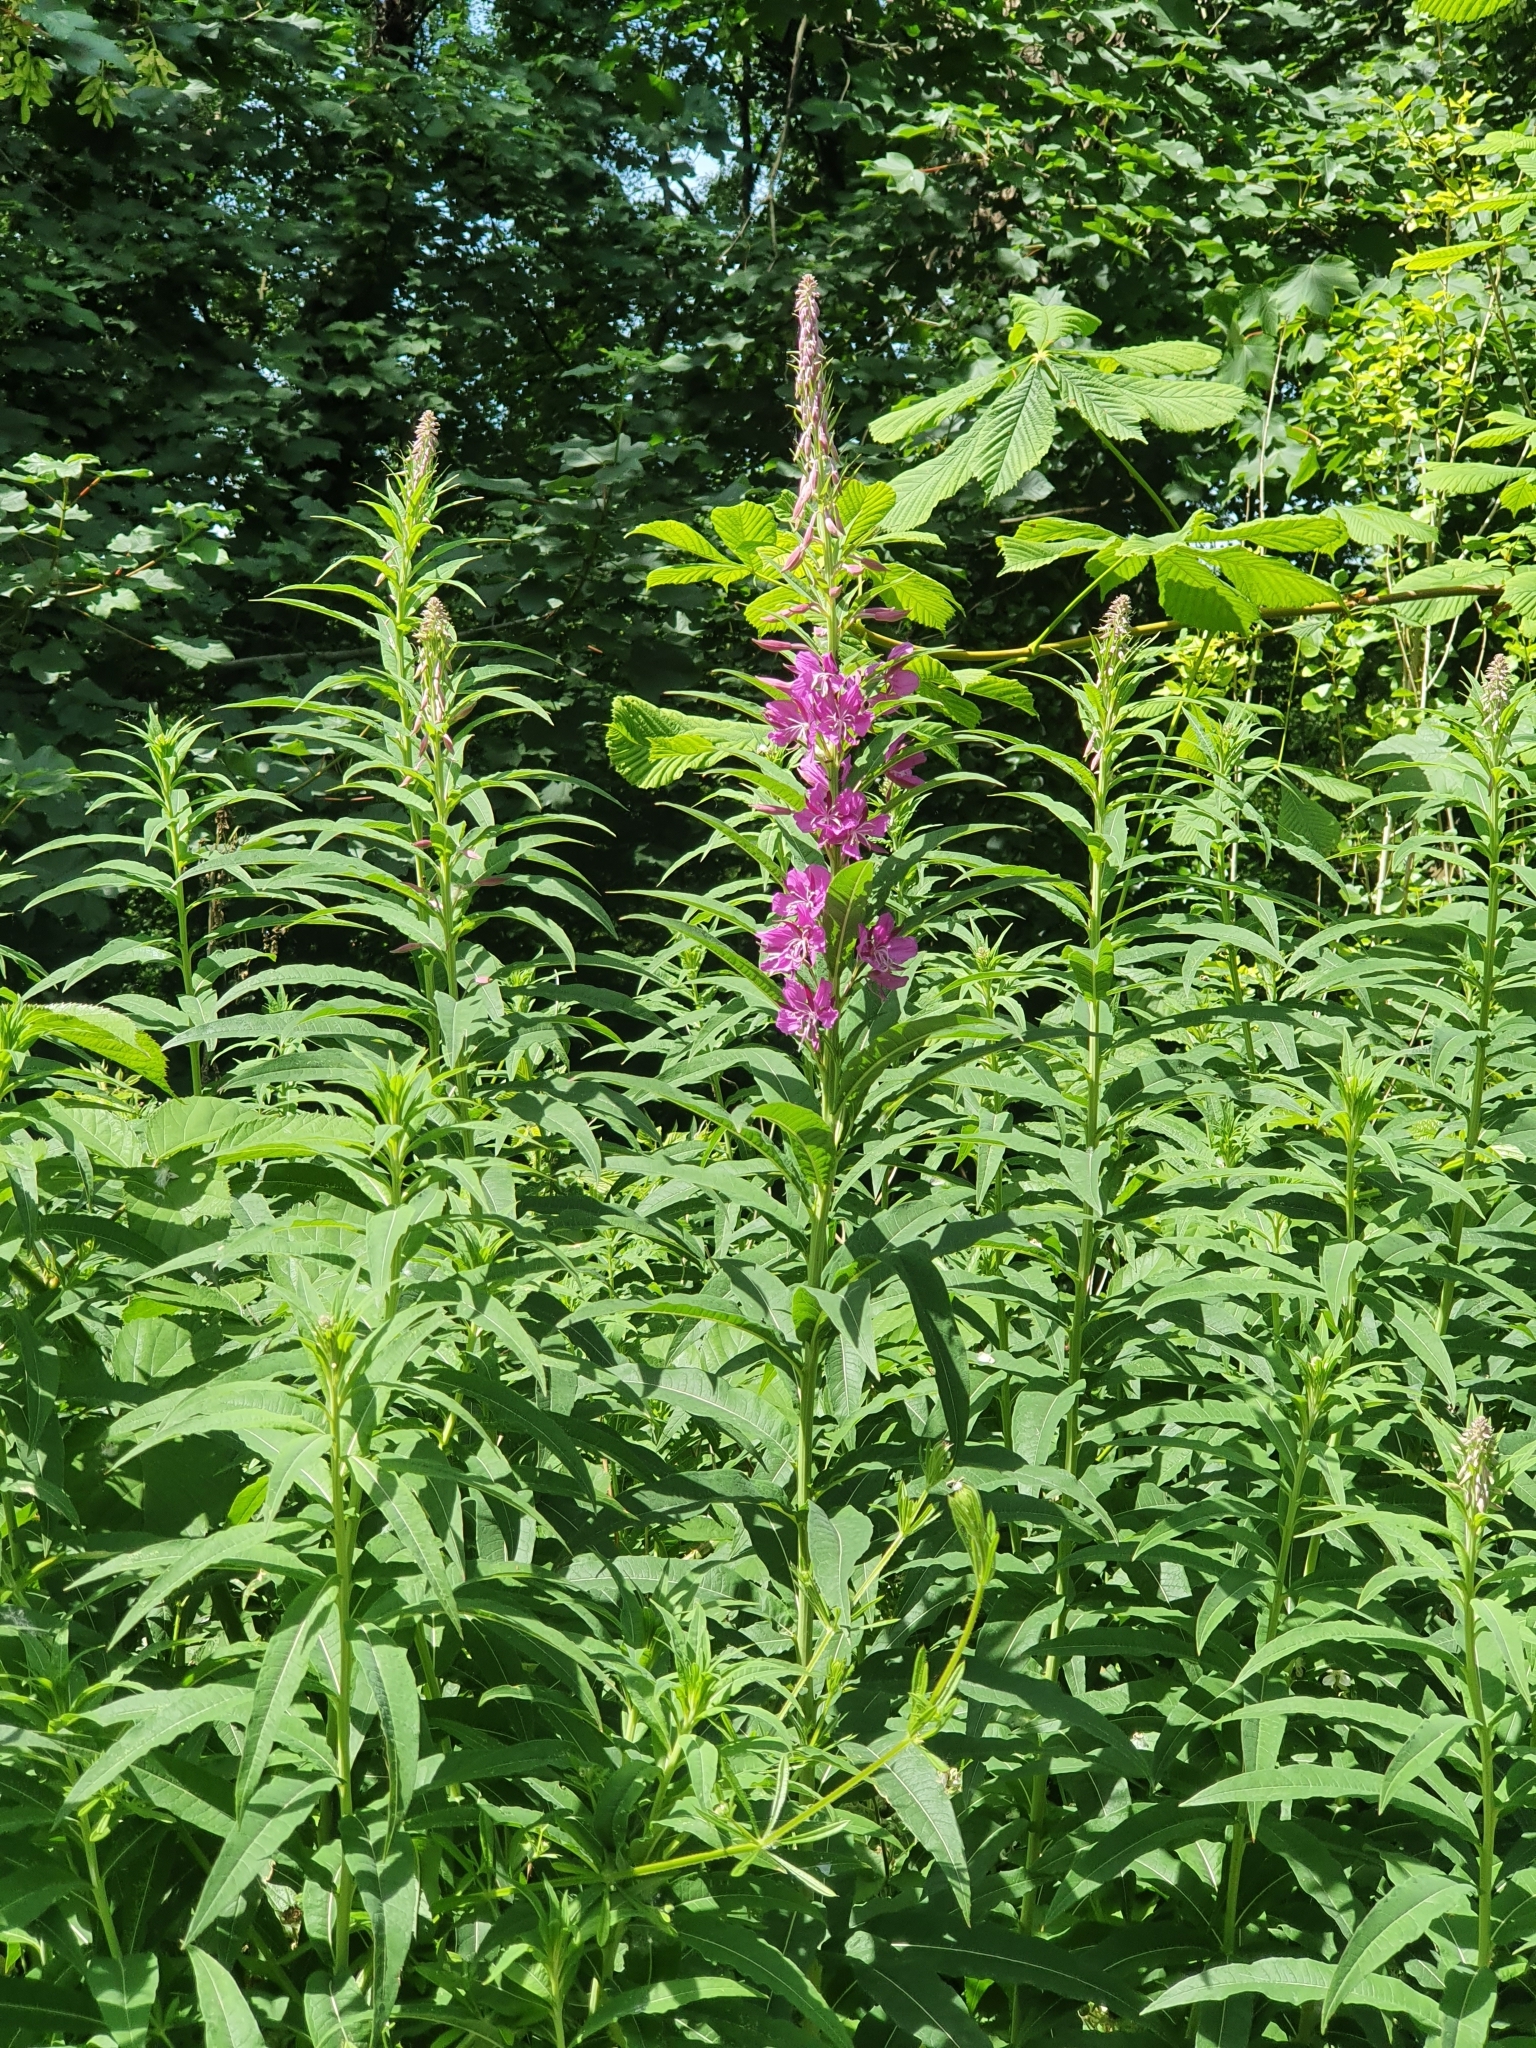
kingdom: Plantae
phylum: Tracheophyta
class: Magnoliopsida
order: Myrtales
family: Onagraceae
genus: Chamaenerion
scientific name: Chamaenerion angustifolium
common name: Fireweed
